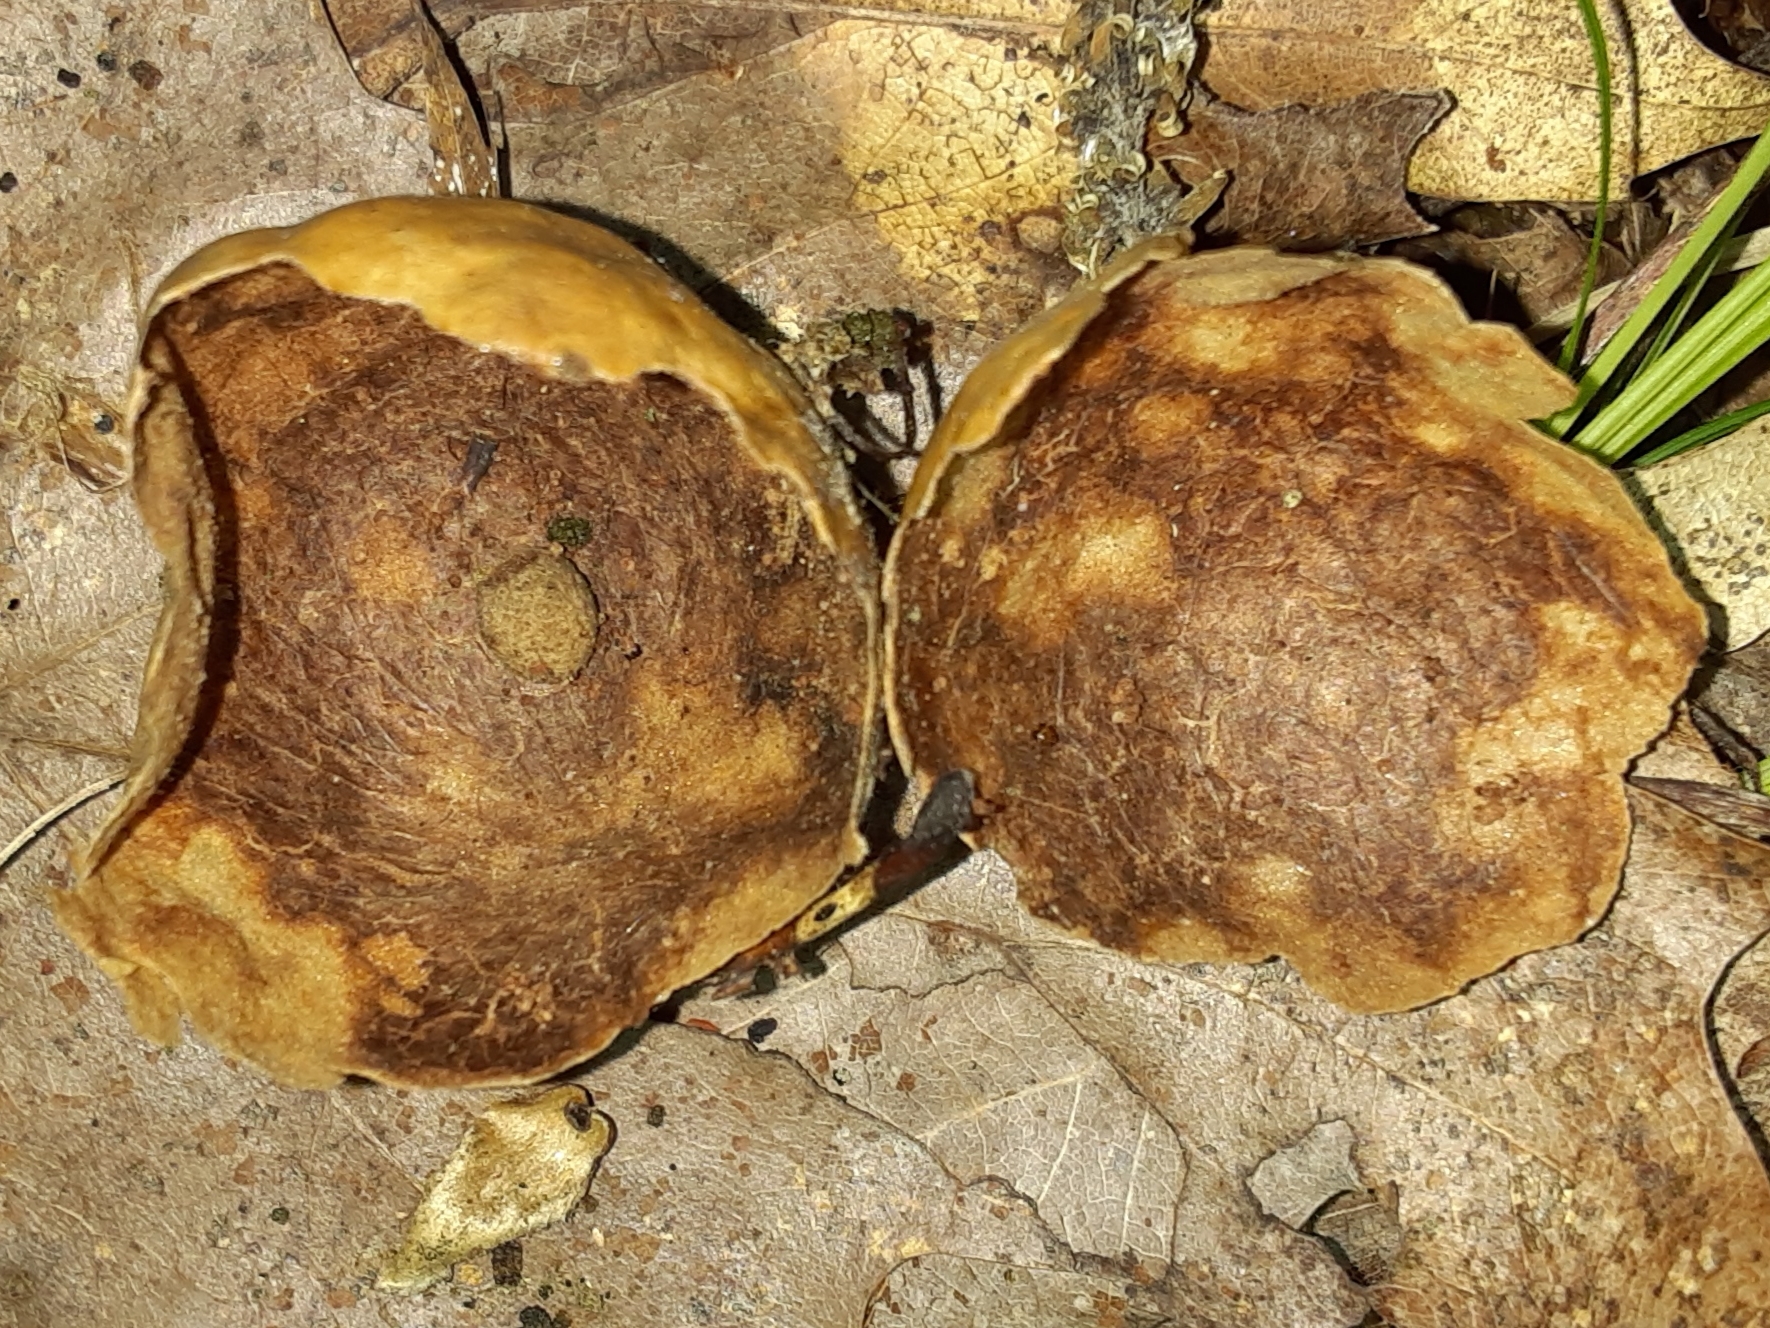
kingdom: Animalia
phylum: Arthropoda
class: Insecta
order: Hymenoptera
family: Cynipidae
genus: Amphibolips
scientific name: Amphibolips
